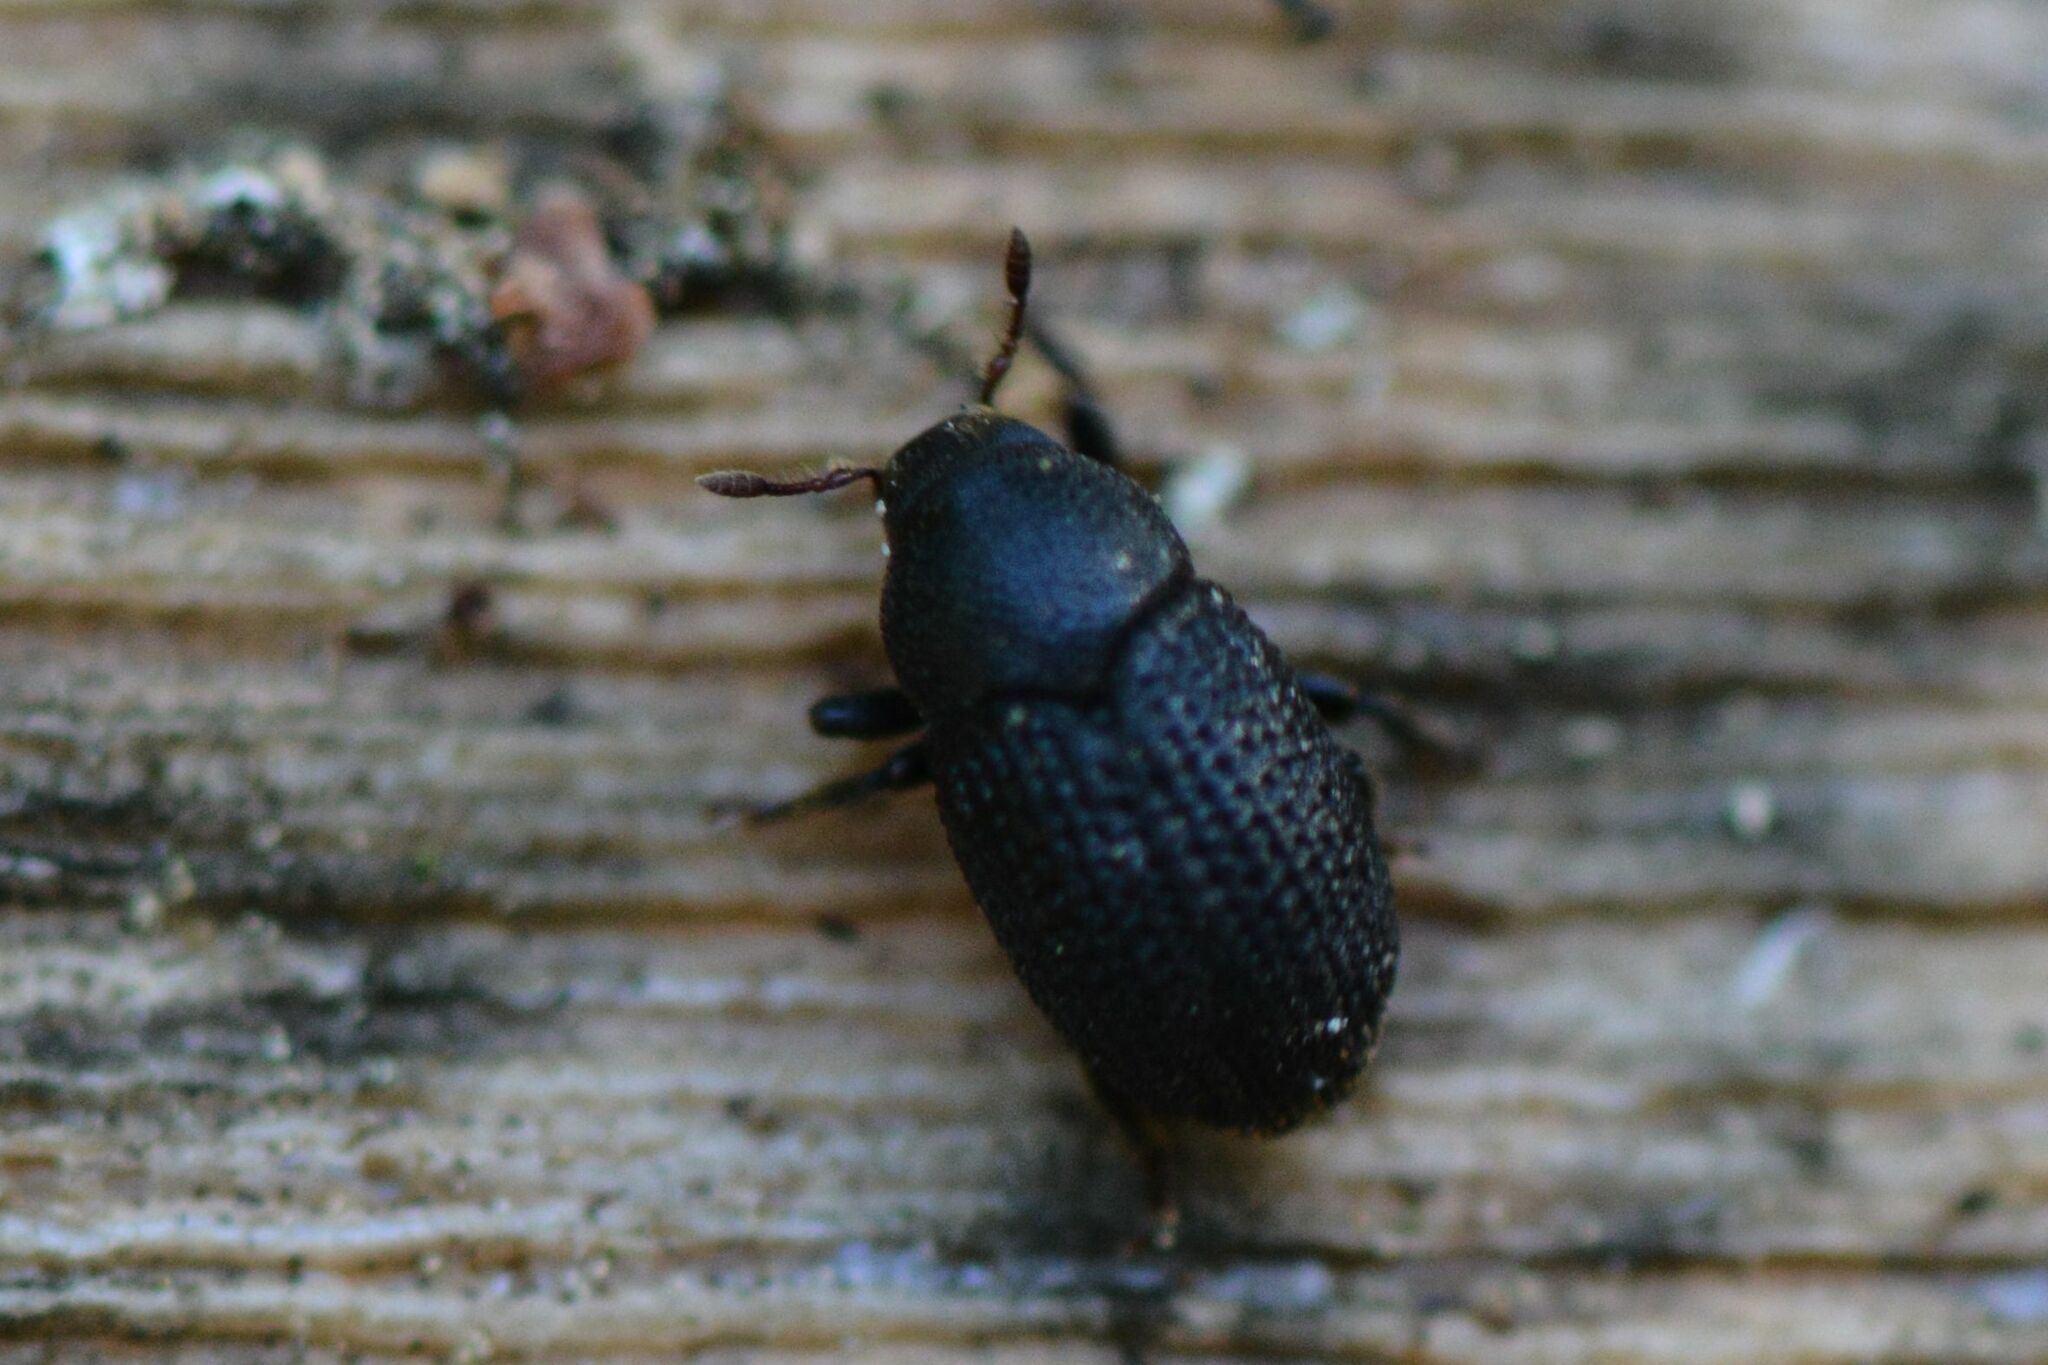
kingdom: Animalia
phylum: Arthropoda
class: Insecta
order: Coleoptera
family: Curculionidae
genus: Hylesinus
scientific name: Hylesinus crenatus
